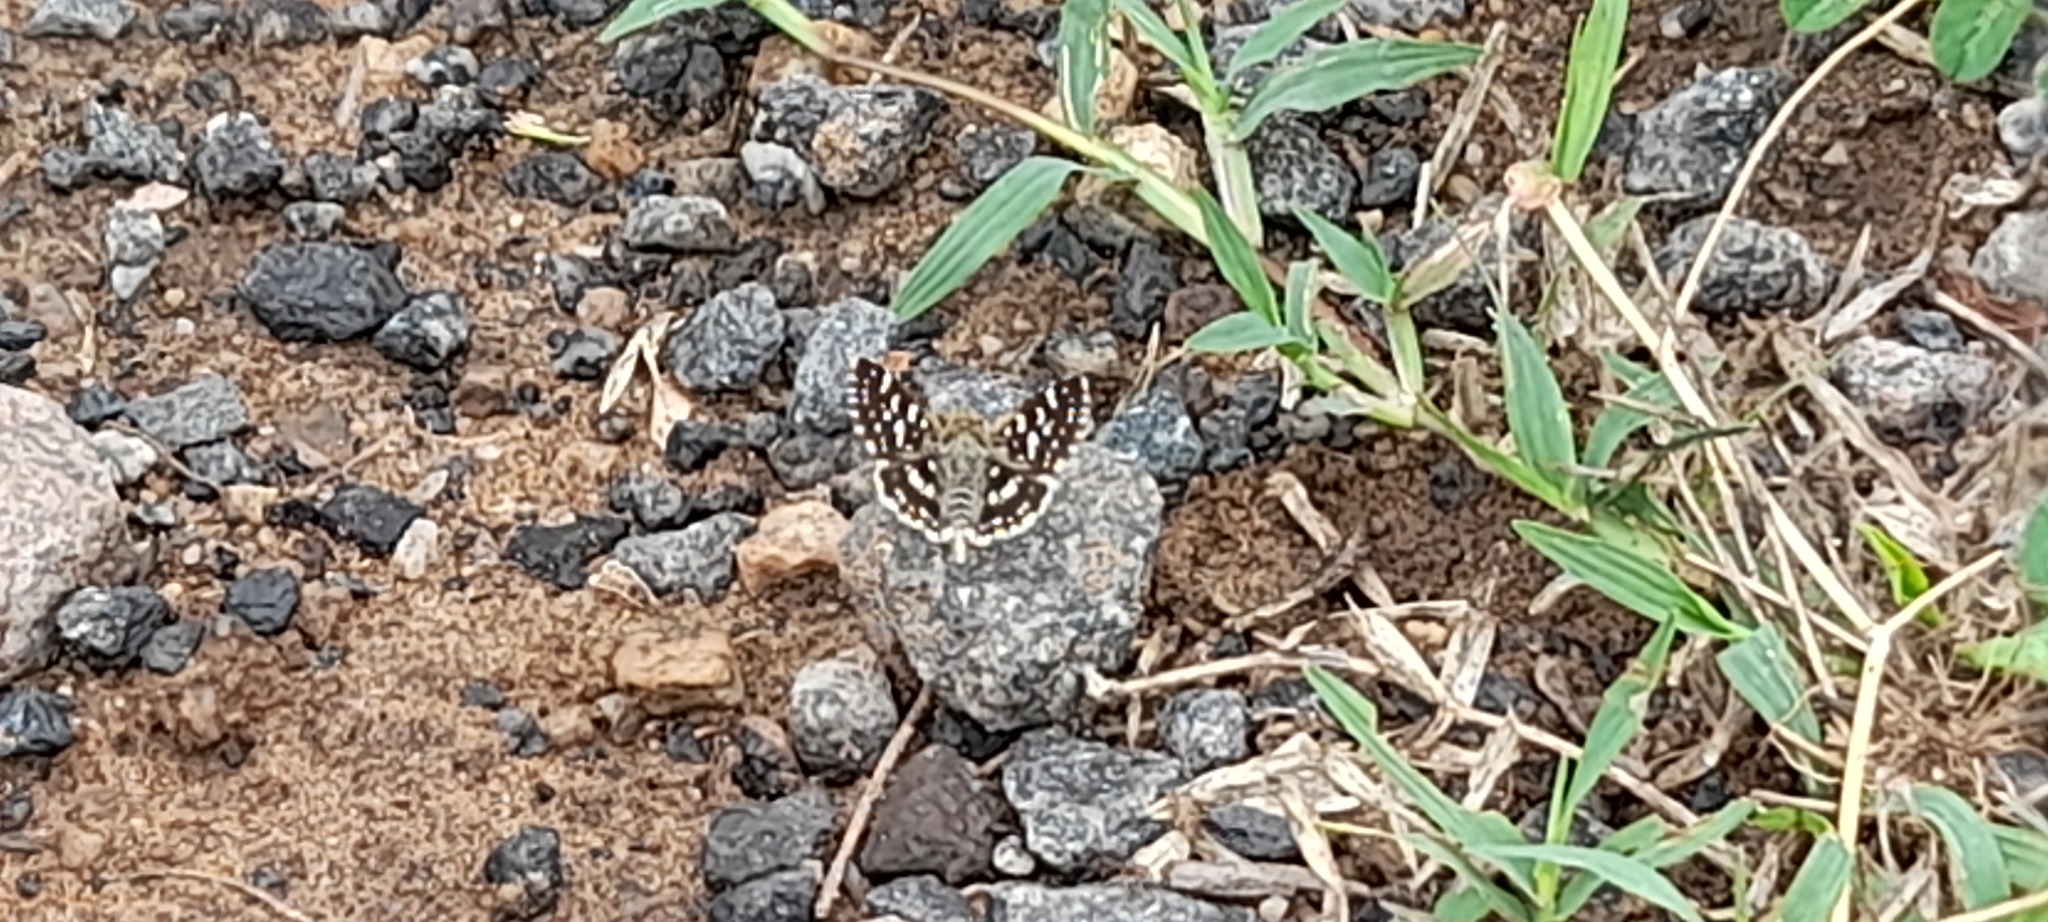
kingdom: Animalia
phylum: Arthropoda
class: Insecta
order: Lepidoptera
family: Hesperiidae
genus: Spialia
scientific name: Spialia galba
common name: Indian skipper
